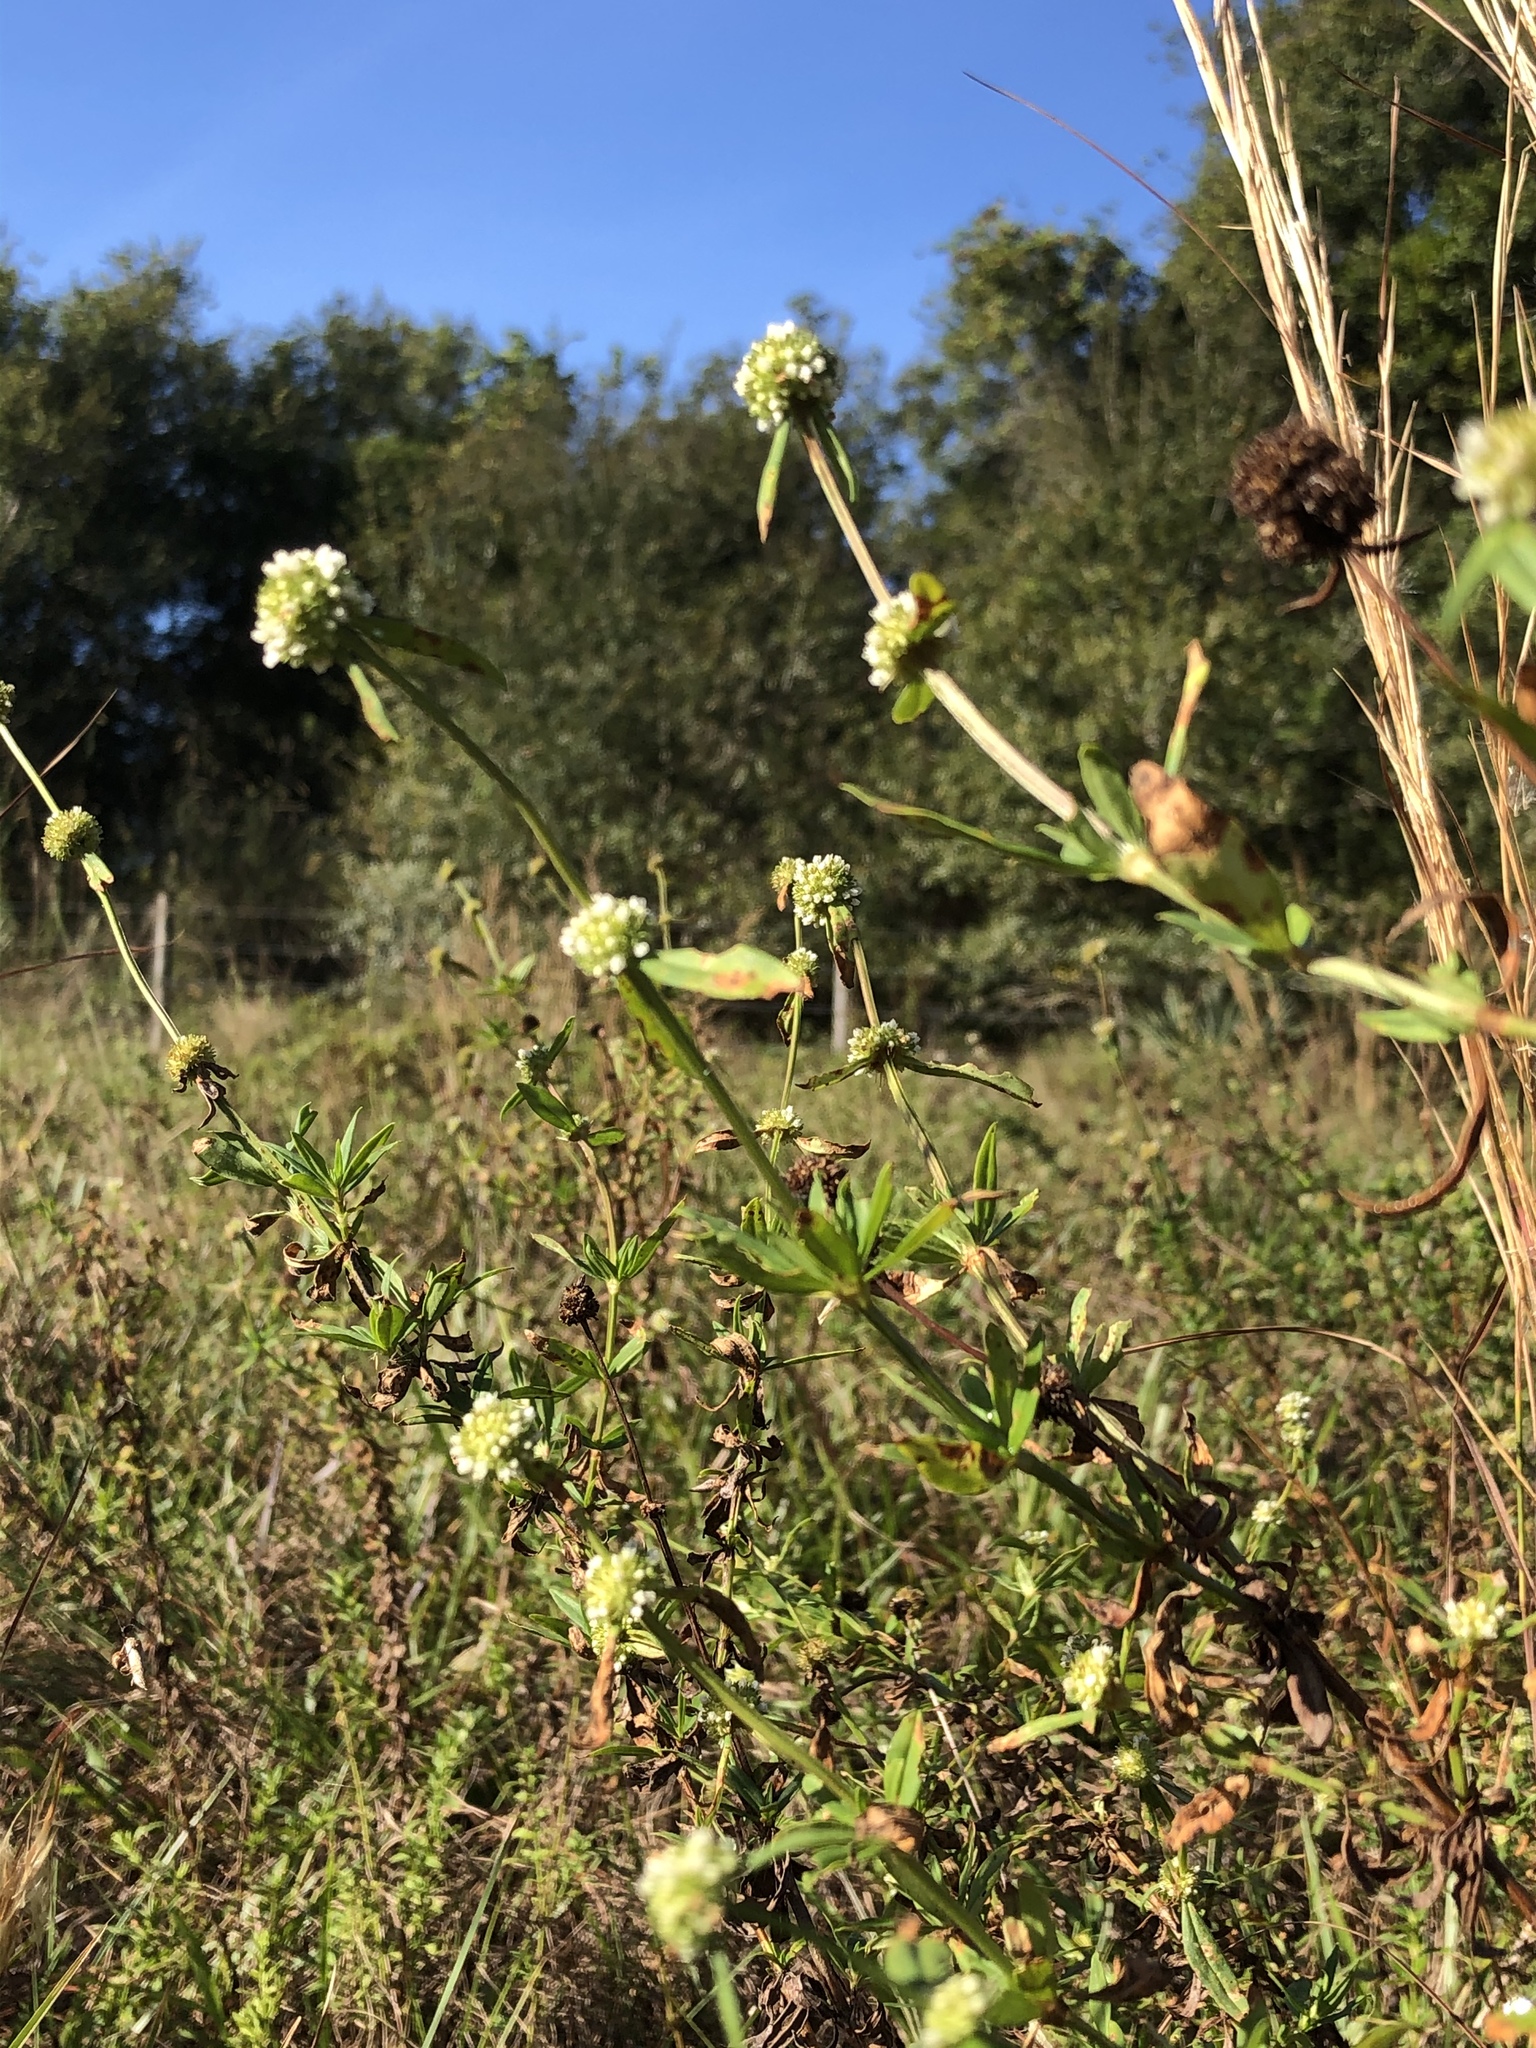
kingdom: Plantae
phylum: Tracheophyta
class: Magnoliopsida
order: Gentianales
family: Rubiaceae
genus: Spermacoce
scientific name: Spermacoce verticillata
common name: Shrubby false buttonweed
